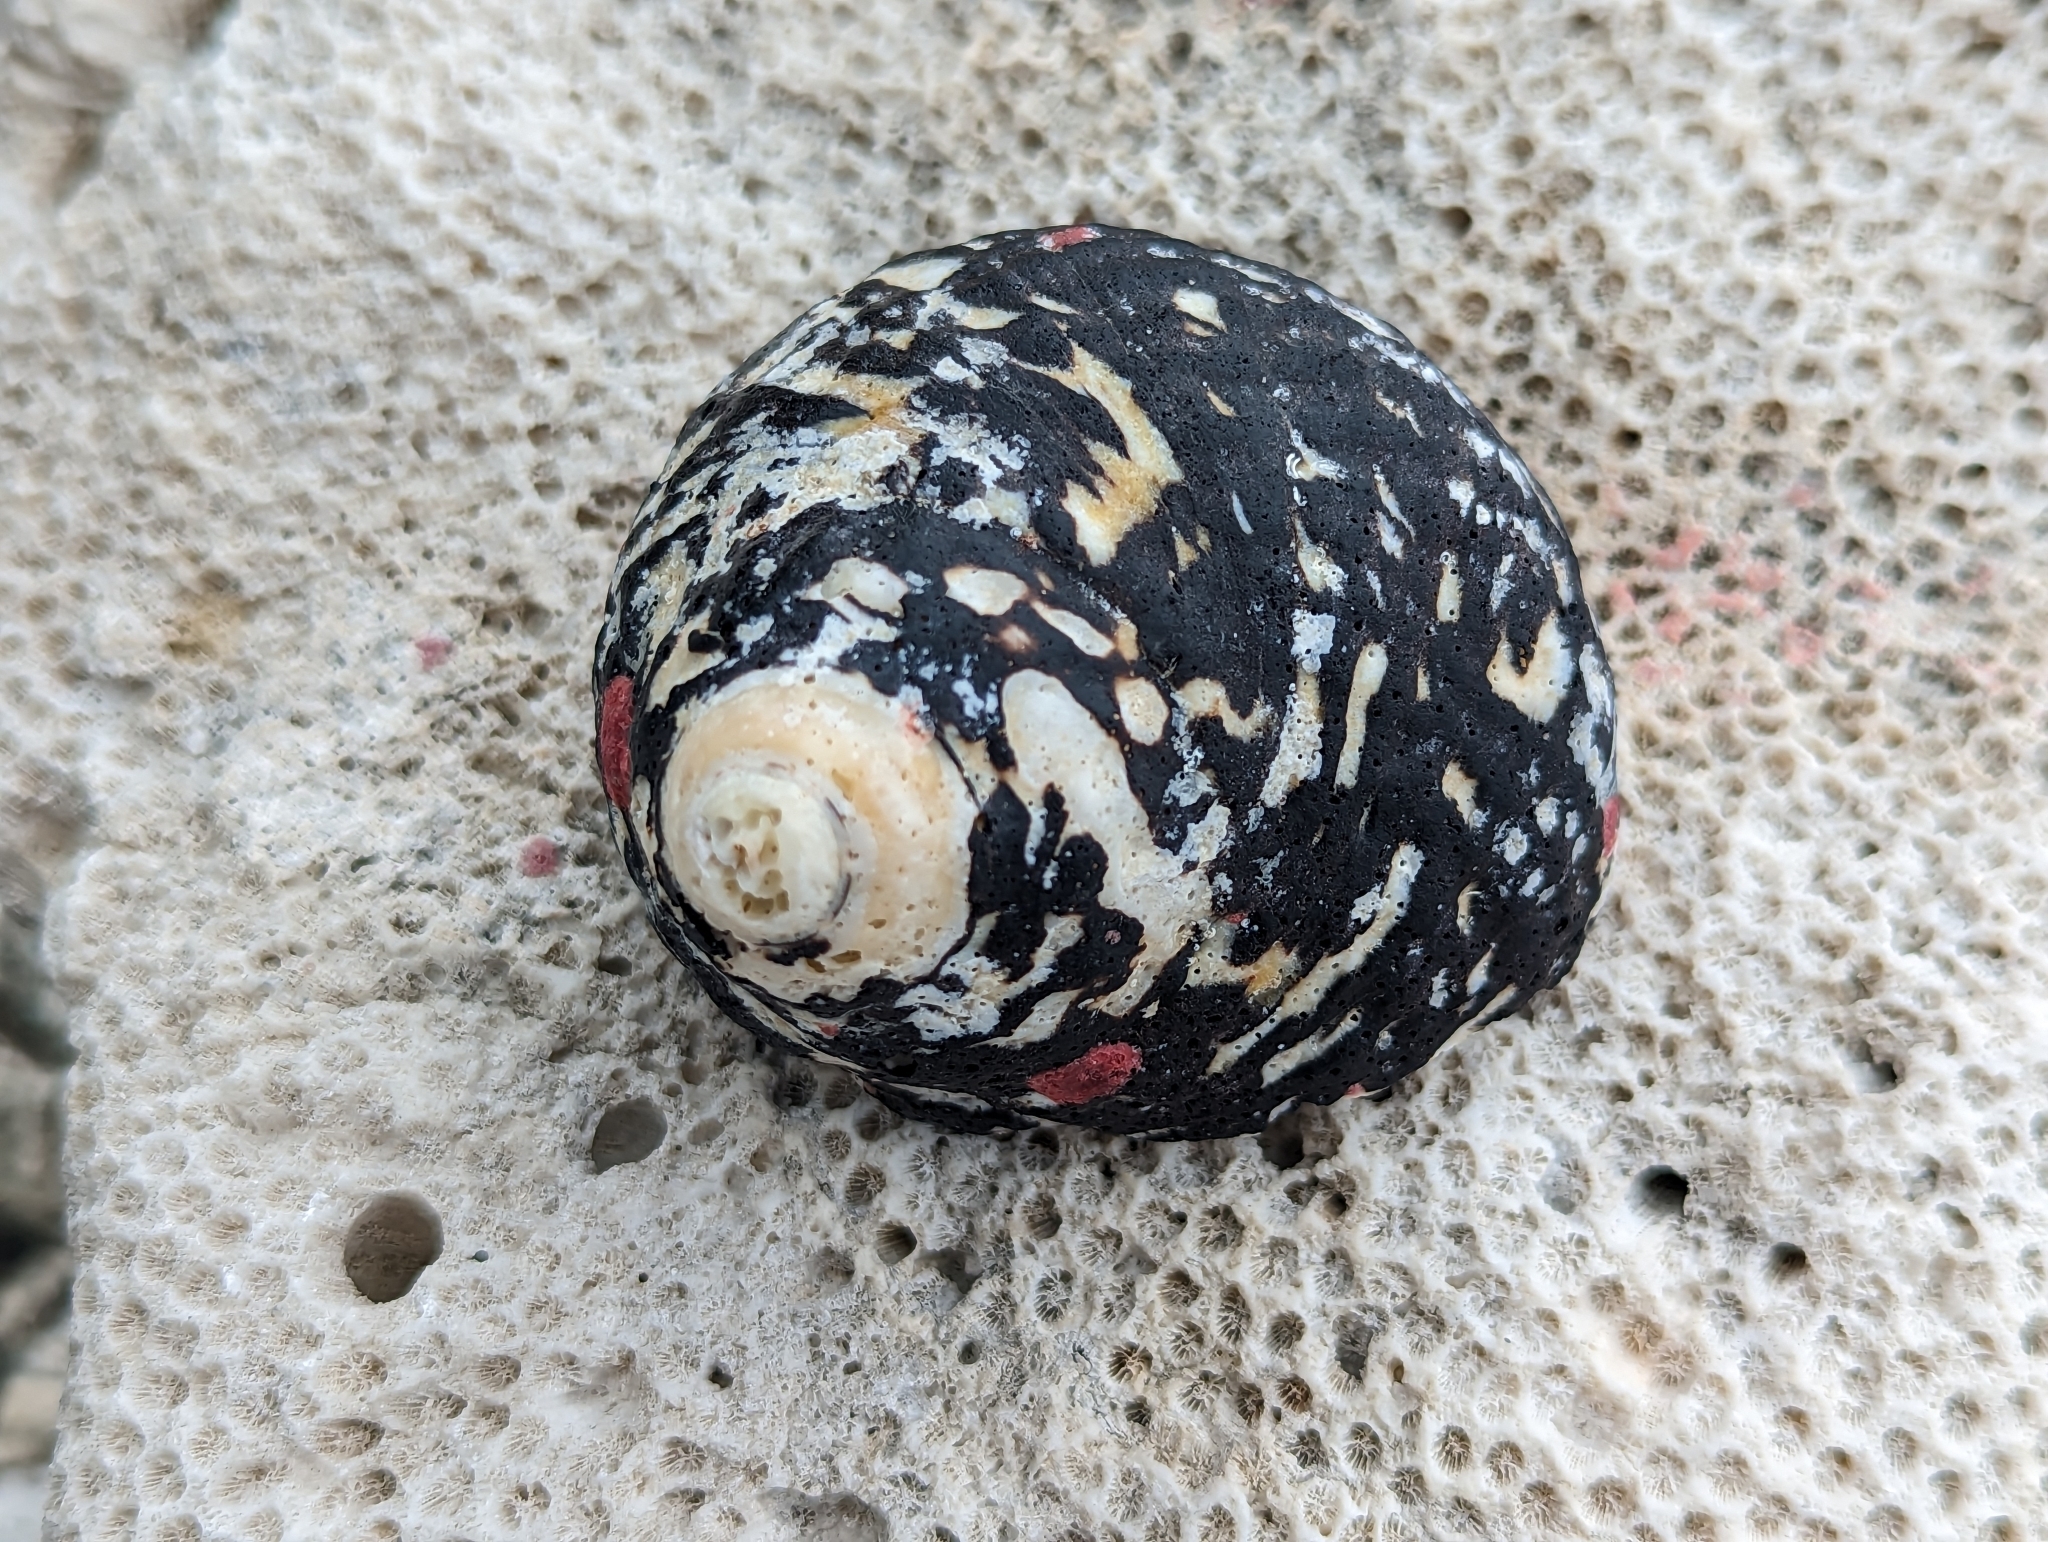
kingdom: Animalia
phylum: Mollusca
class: Gastropoda
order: Trochida
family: Tegulidae
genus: Cittarium
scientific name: Cittarium pica
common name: West indian topshell
